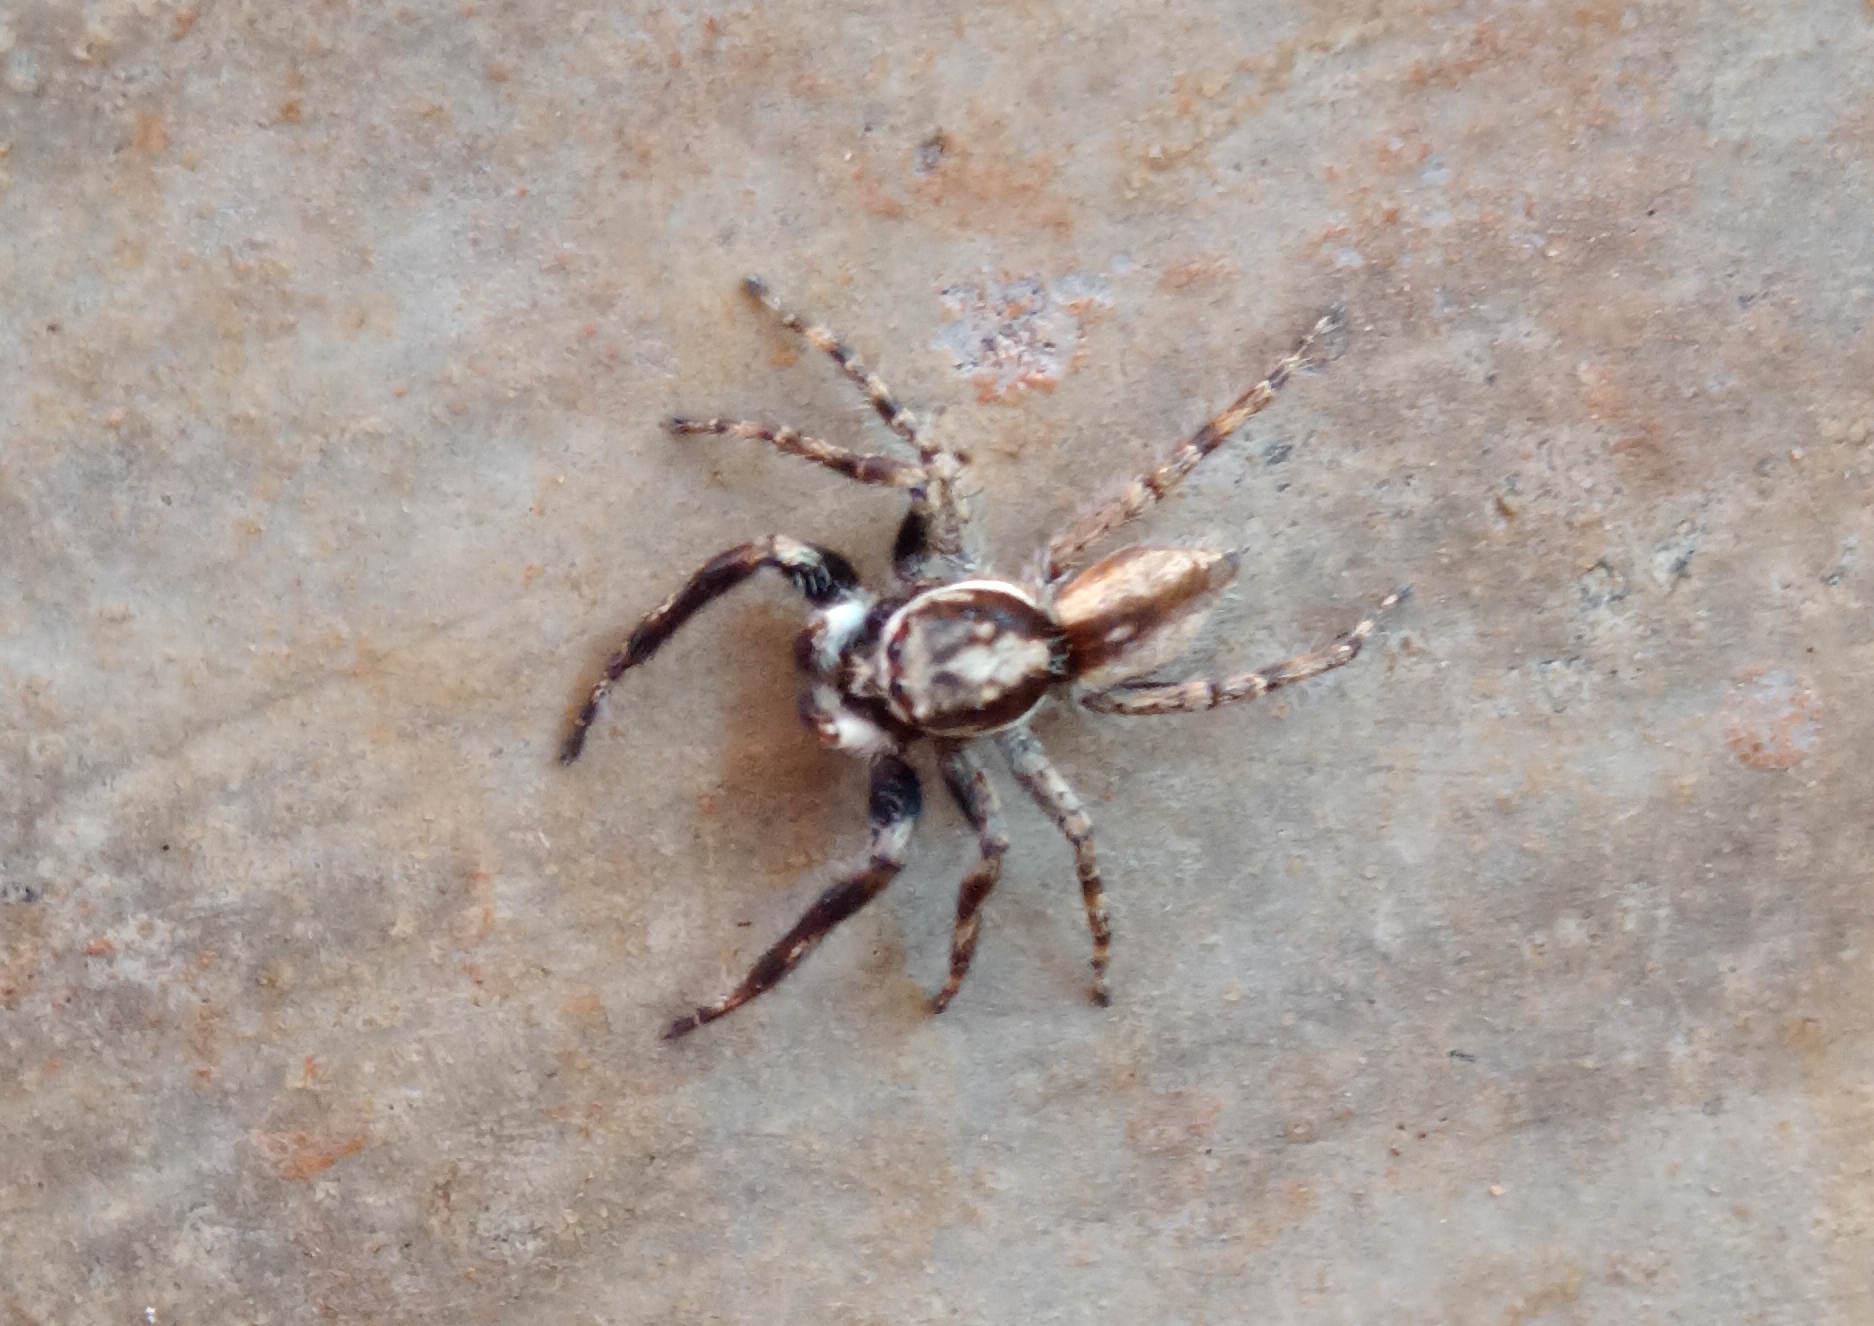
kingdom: Animalia
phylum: Arthropoda
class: Arachnida
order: Araneae
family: Salticidae
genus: Menemerus
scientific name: Menemerus bivittatus
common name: Gray wall jumper
